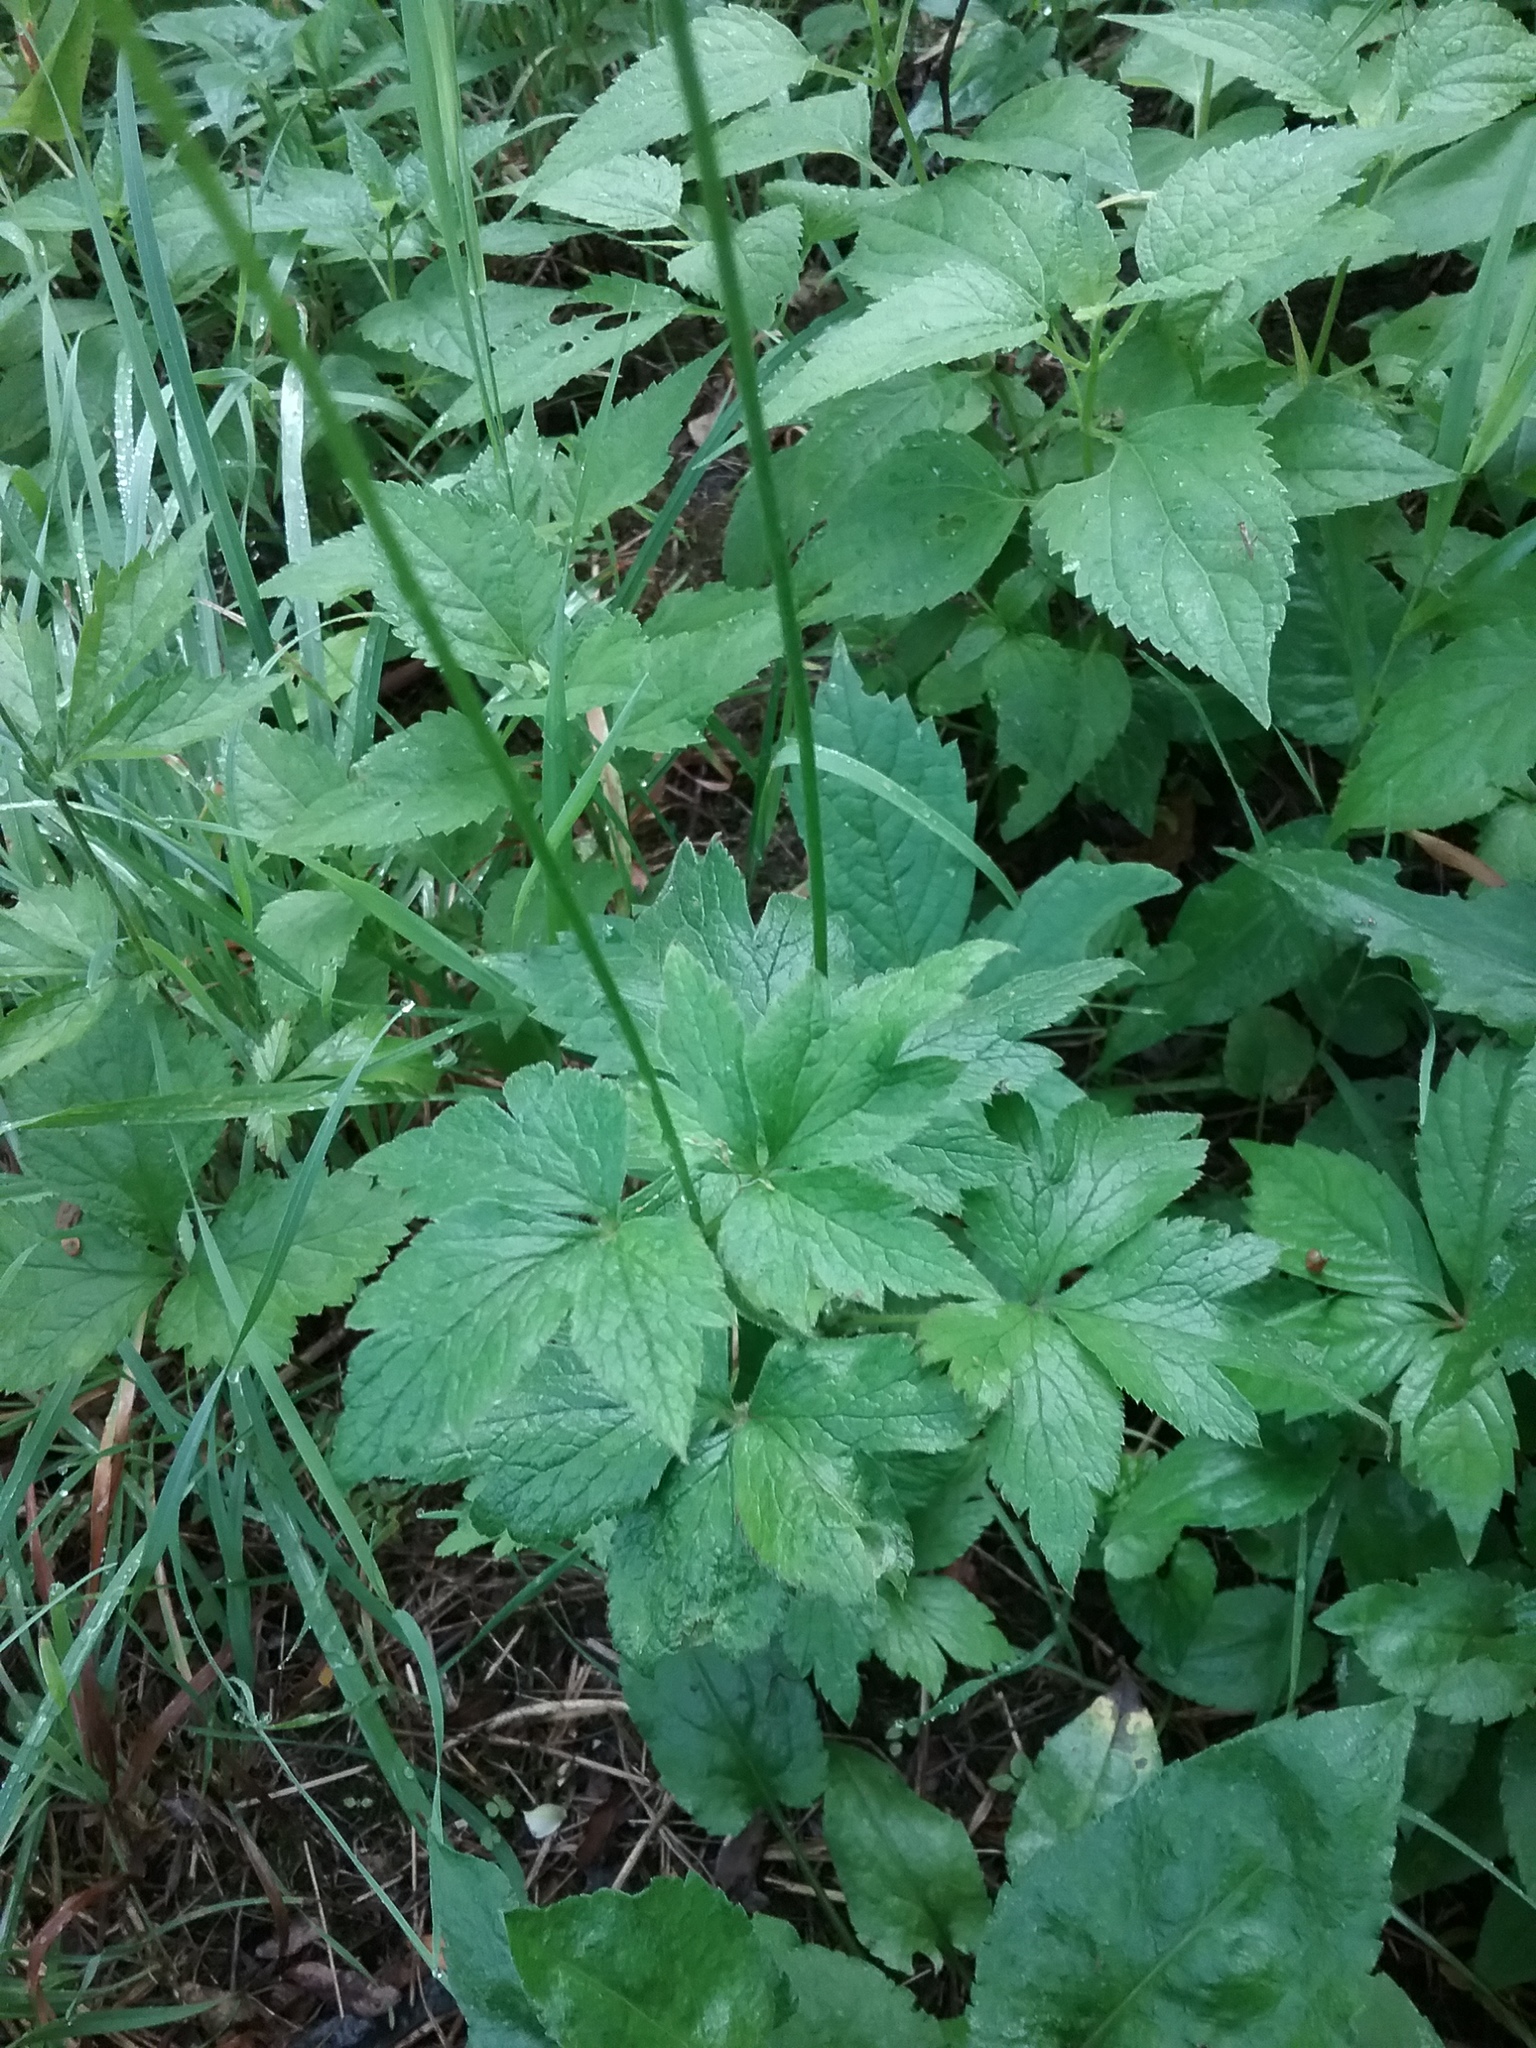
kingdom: Plantae
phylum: Tracheophyta
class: Magnoliopsida
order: Ranunculales
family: Ranunculaceae
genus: Anemone
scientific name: Anemone virginiana
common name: Tall anemone
